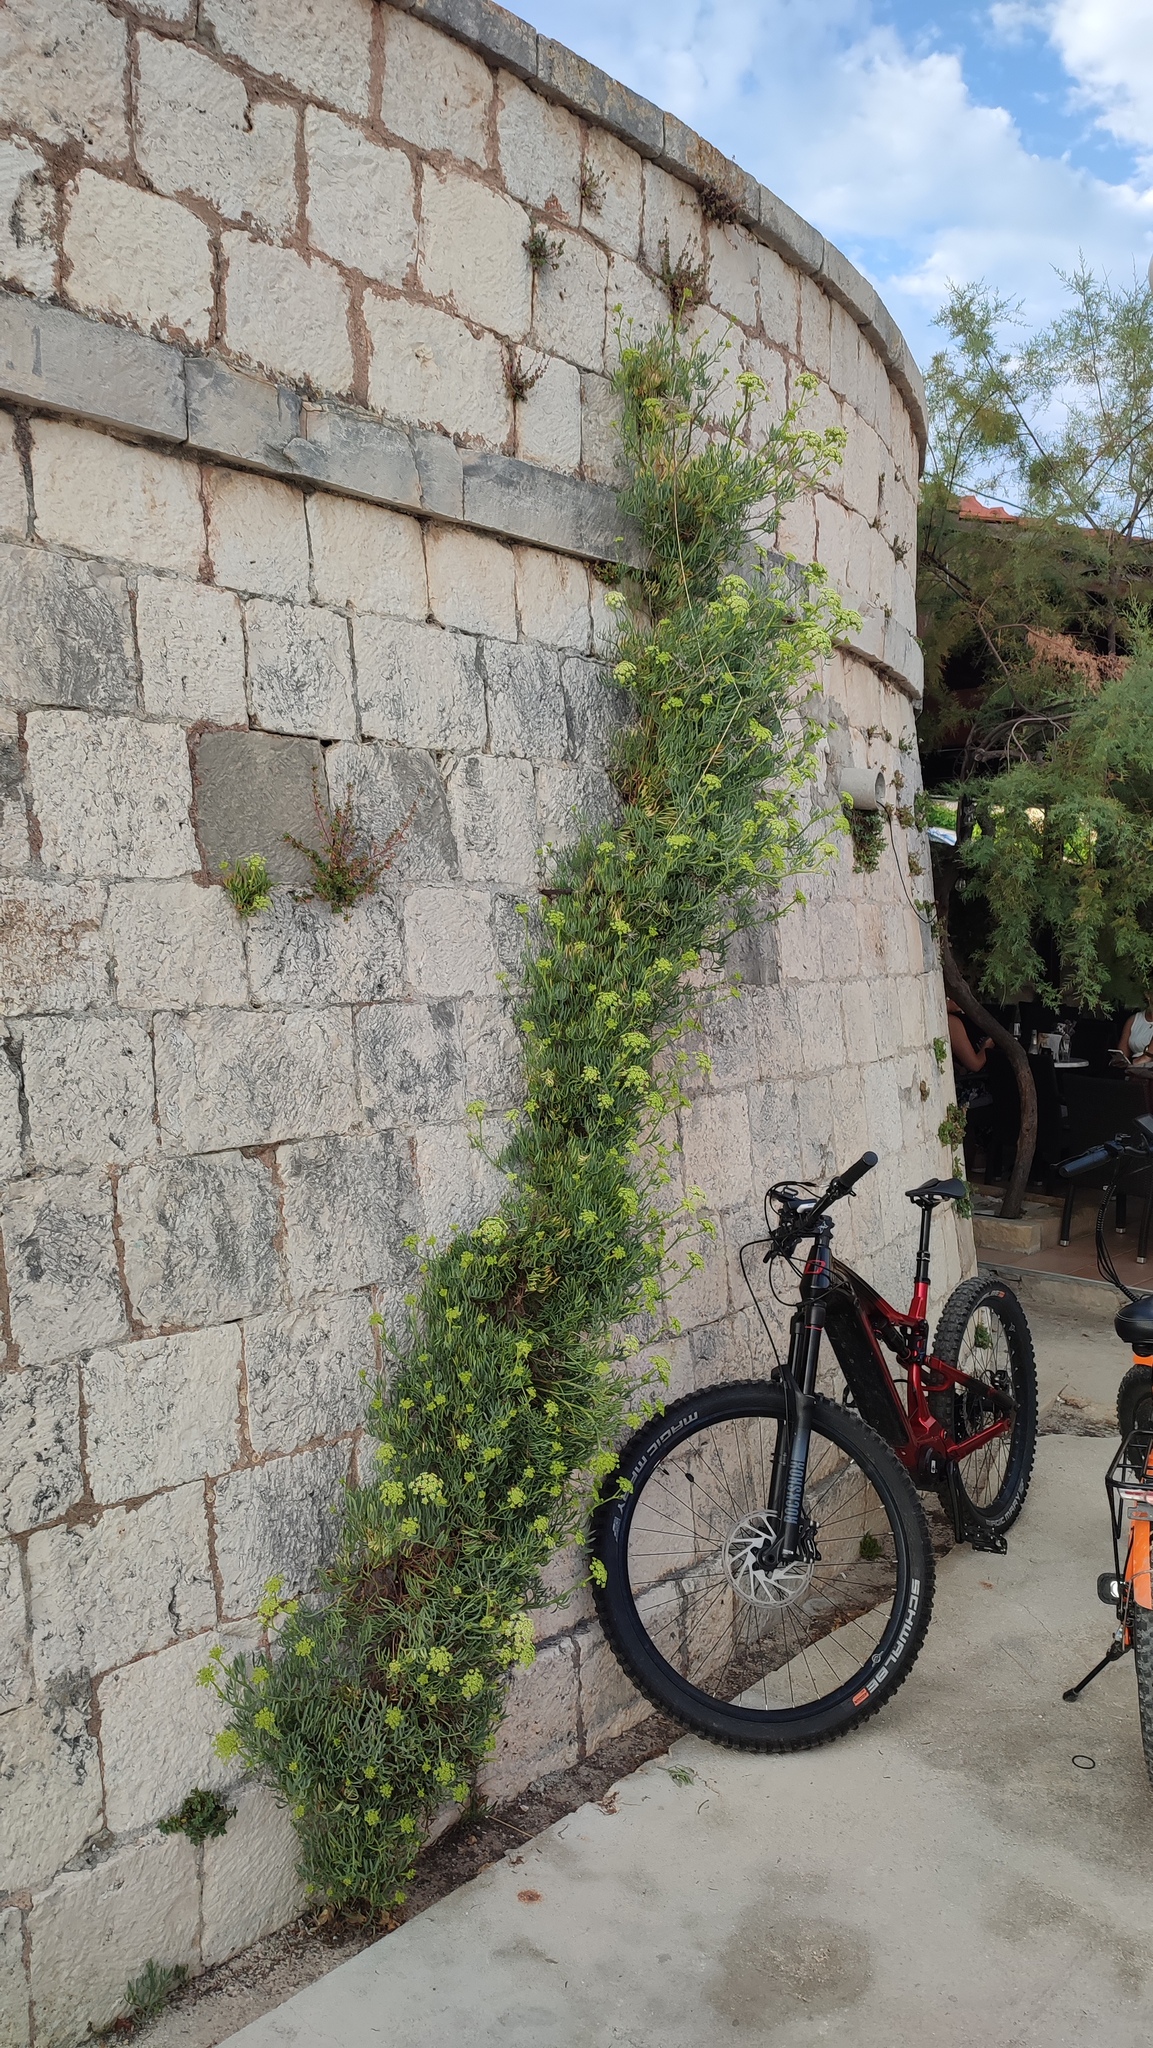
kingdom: Plantae
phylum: Tracheophyta
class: Magnoliopsida
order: Apiales
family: Apiaceae
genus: Crithmum
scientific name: Crithmum maritimum
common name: Rock samphire
